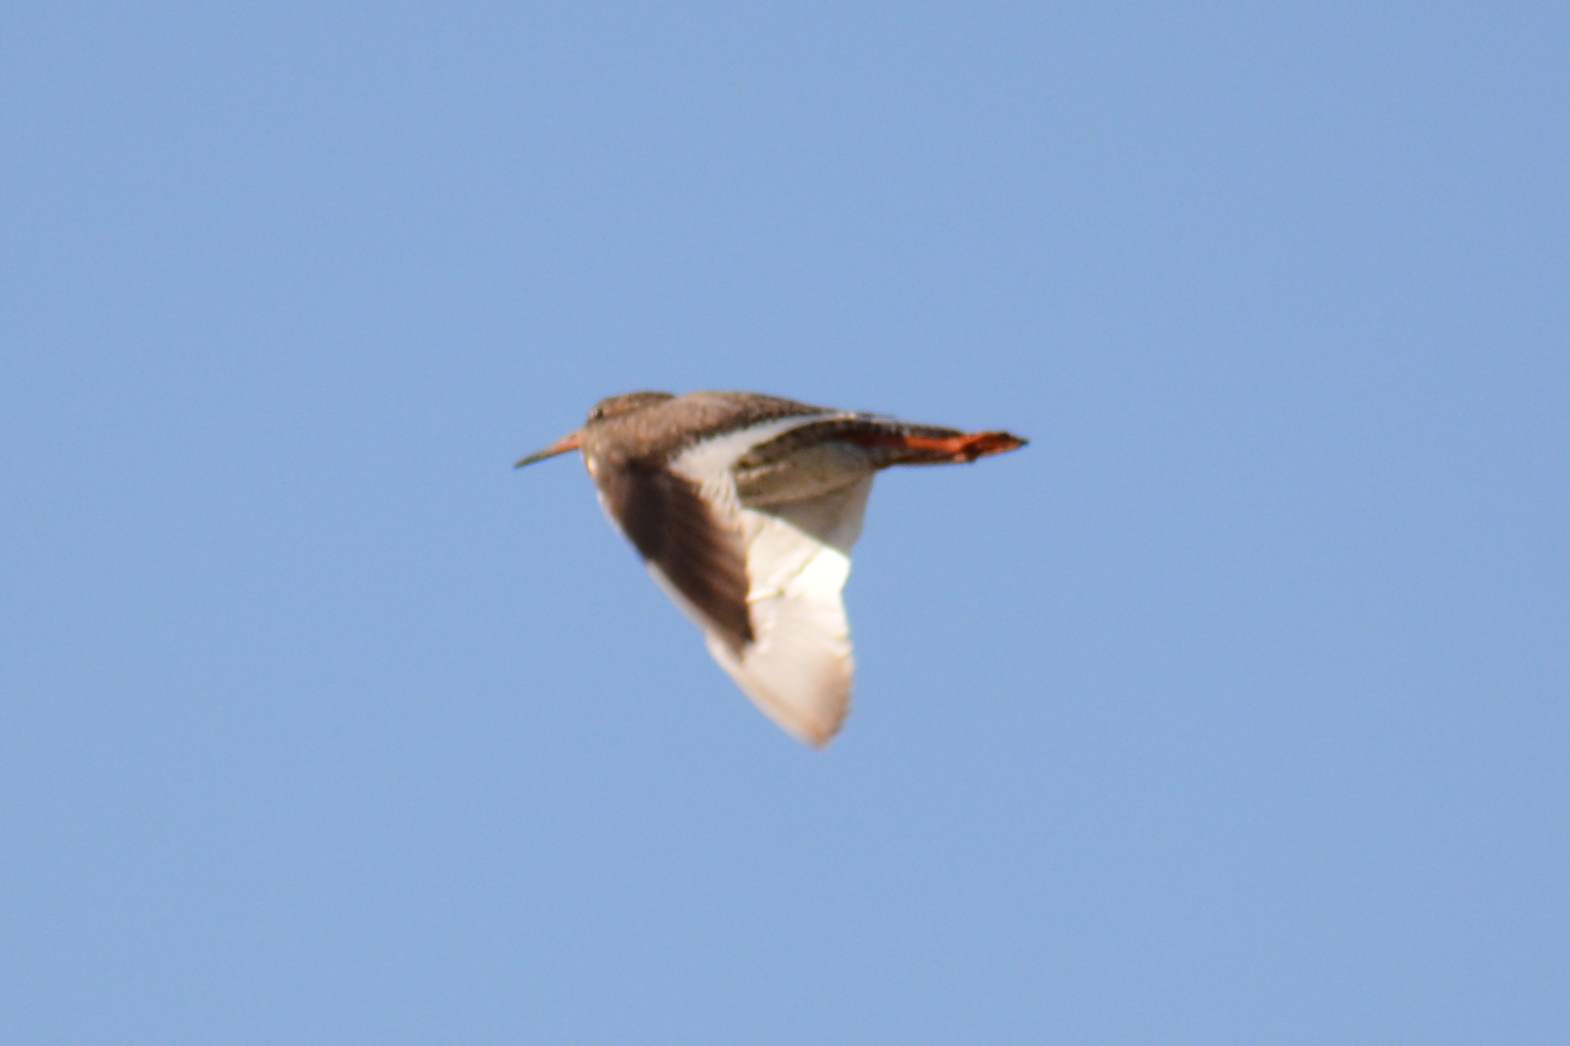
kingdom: Animalia
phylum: Chordata
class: Aves
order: Charadriiformes
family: Scolopacidae
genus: Tringa
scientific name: Tringa totanus
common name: Common redshank
